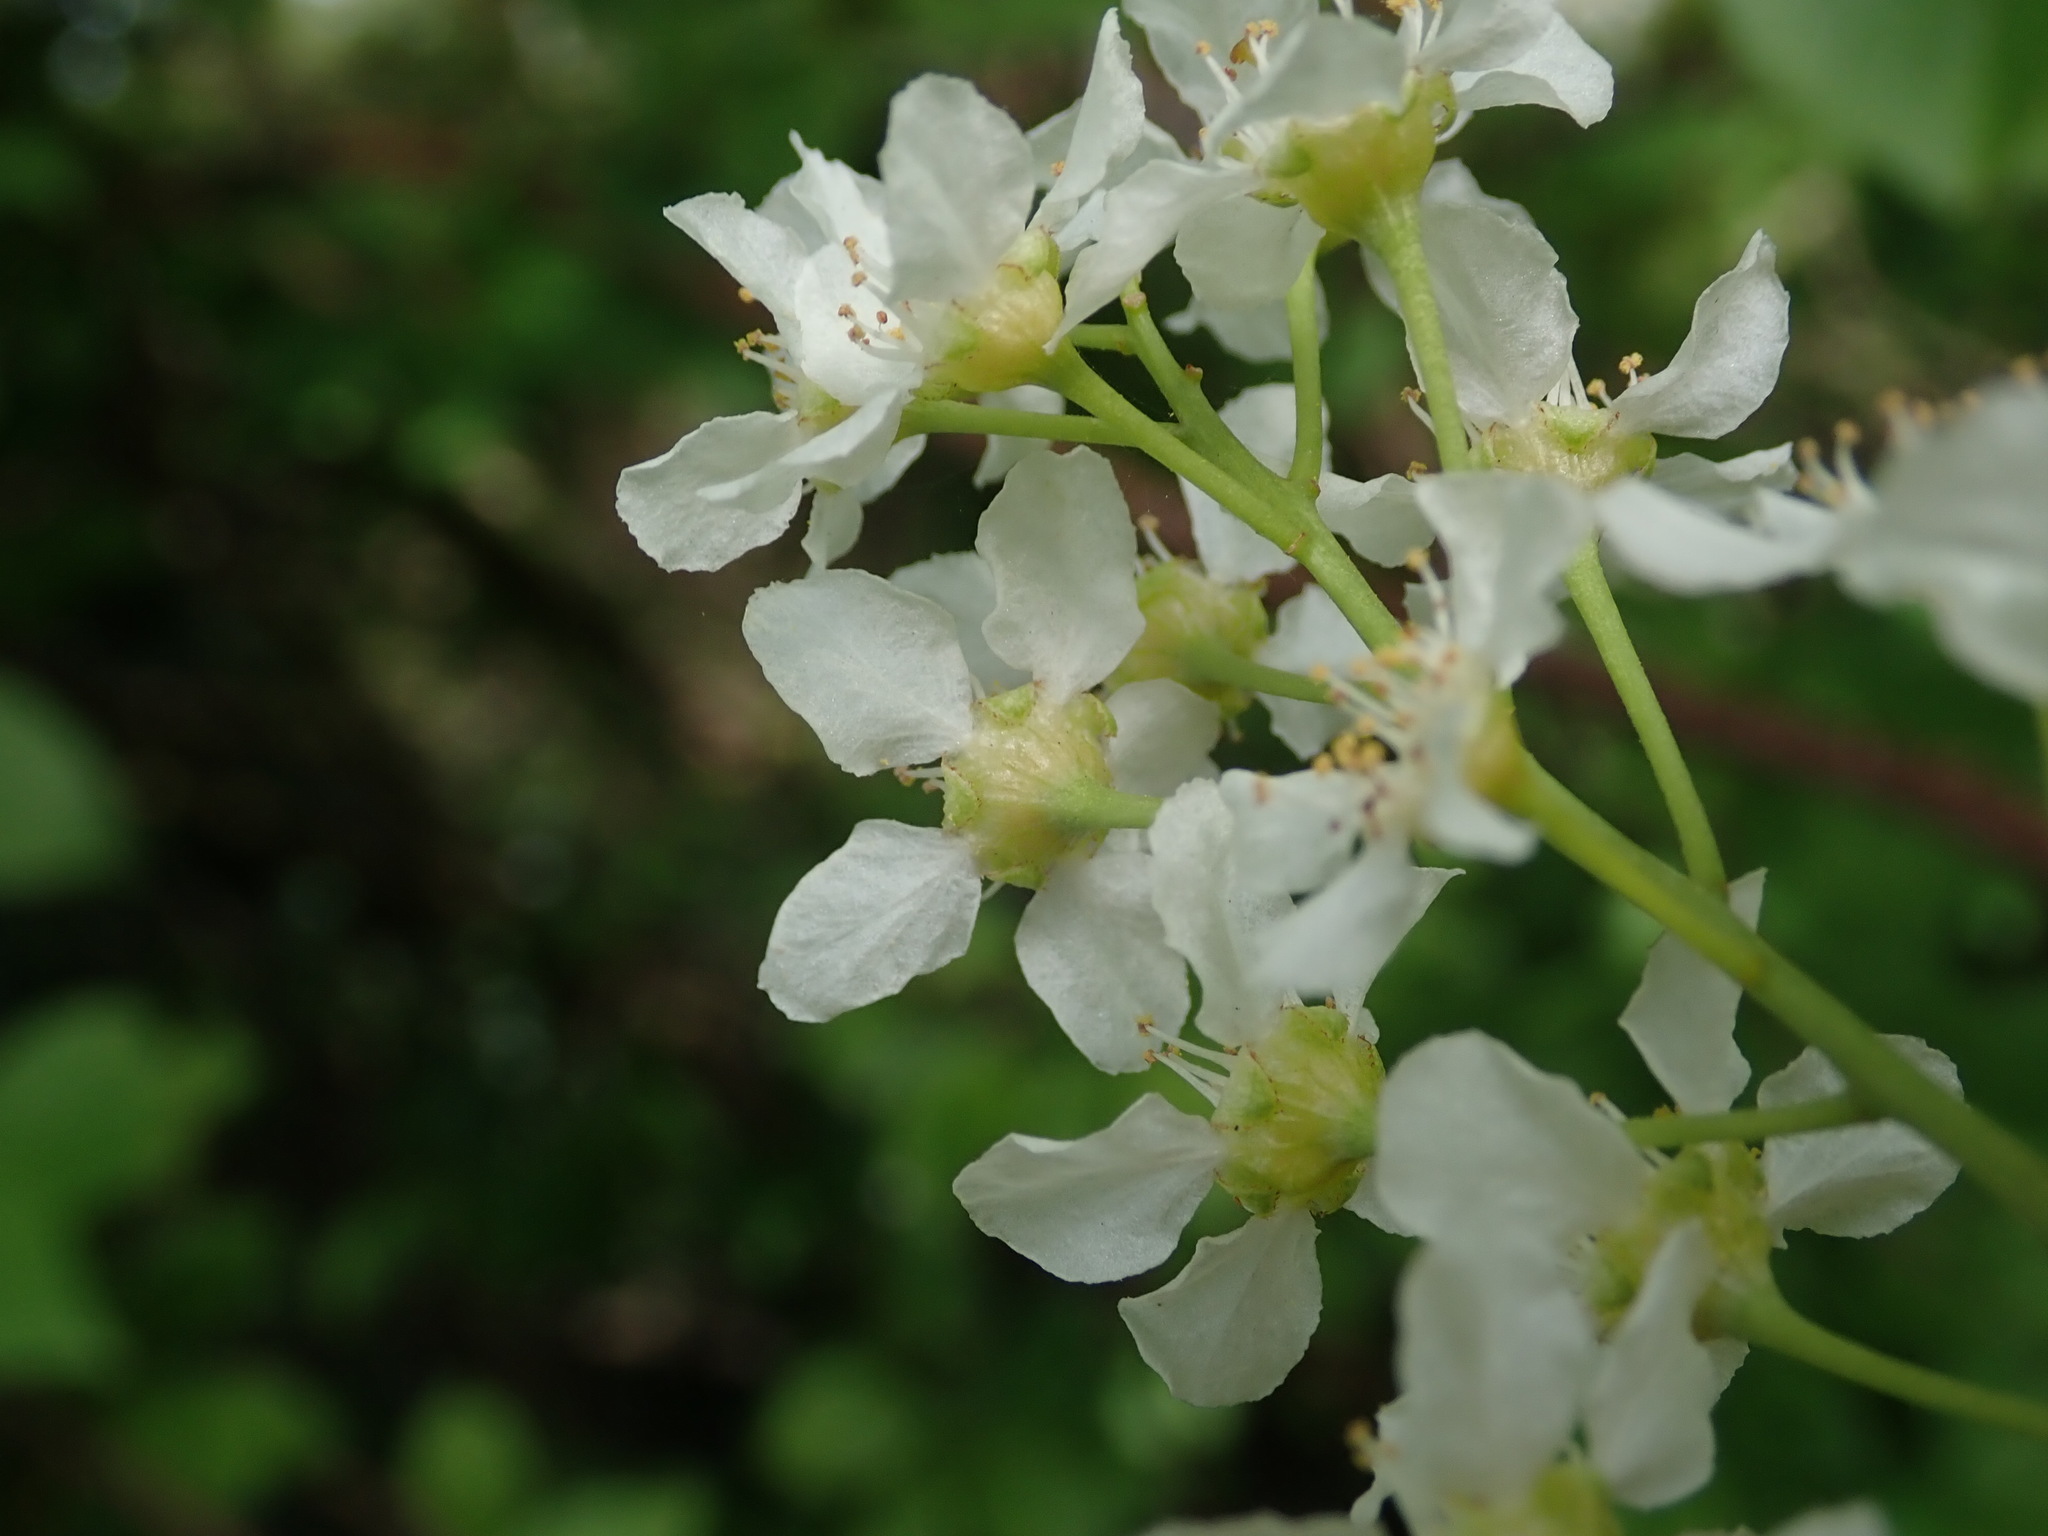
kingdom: Plantae
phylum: Tracheophyta
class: Magnoliopsida
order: Rosales
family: Rosaceae
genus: Prunus
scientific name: Prunus padus
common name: Bird cherry
